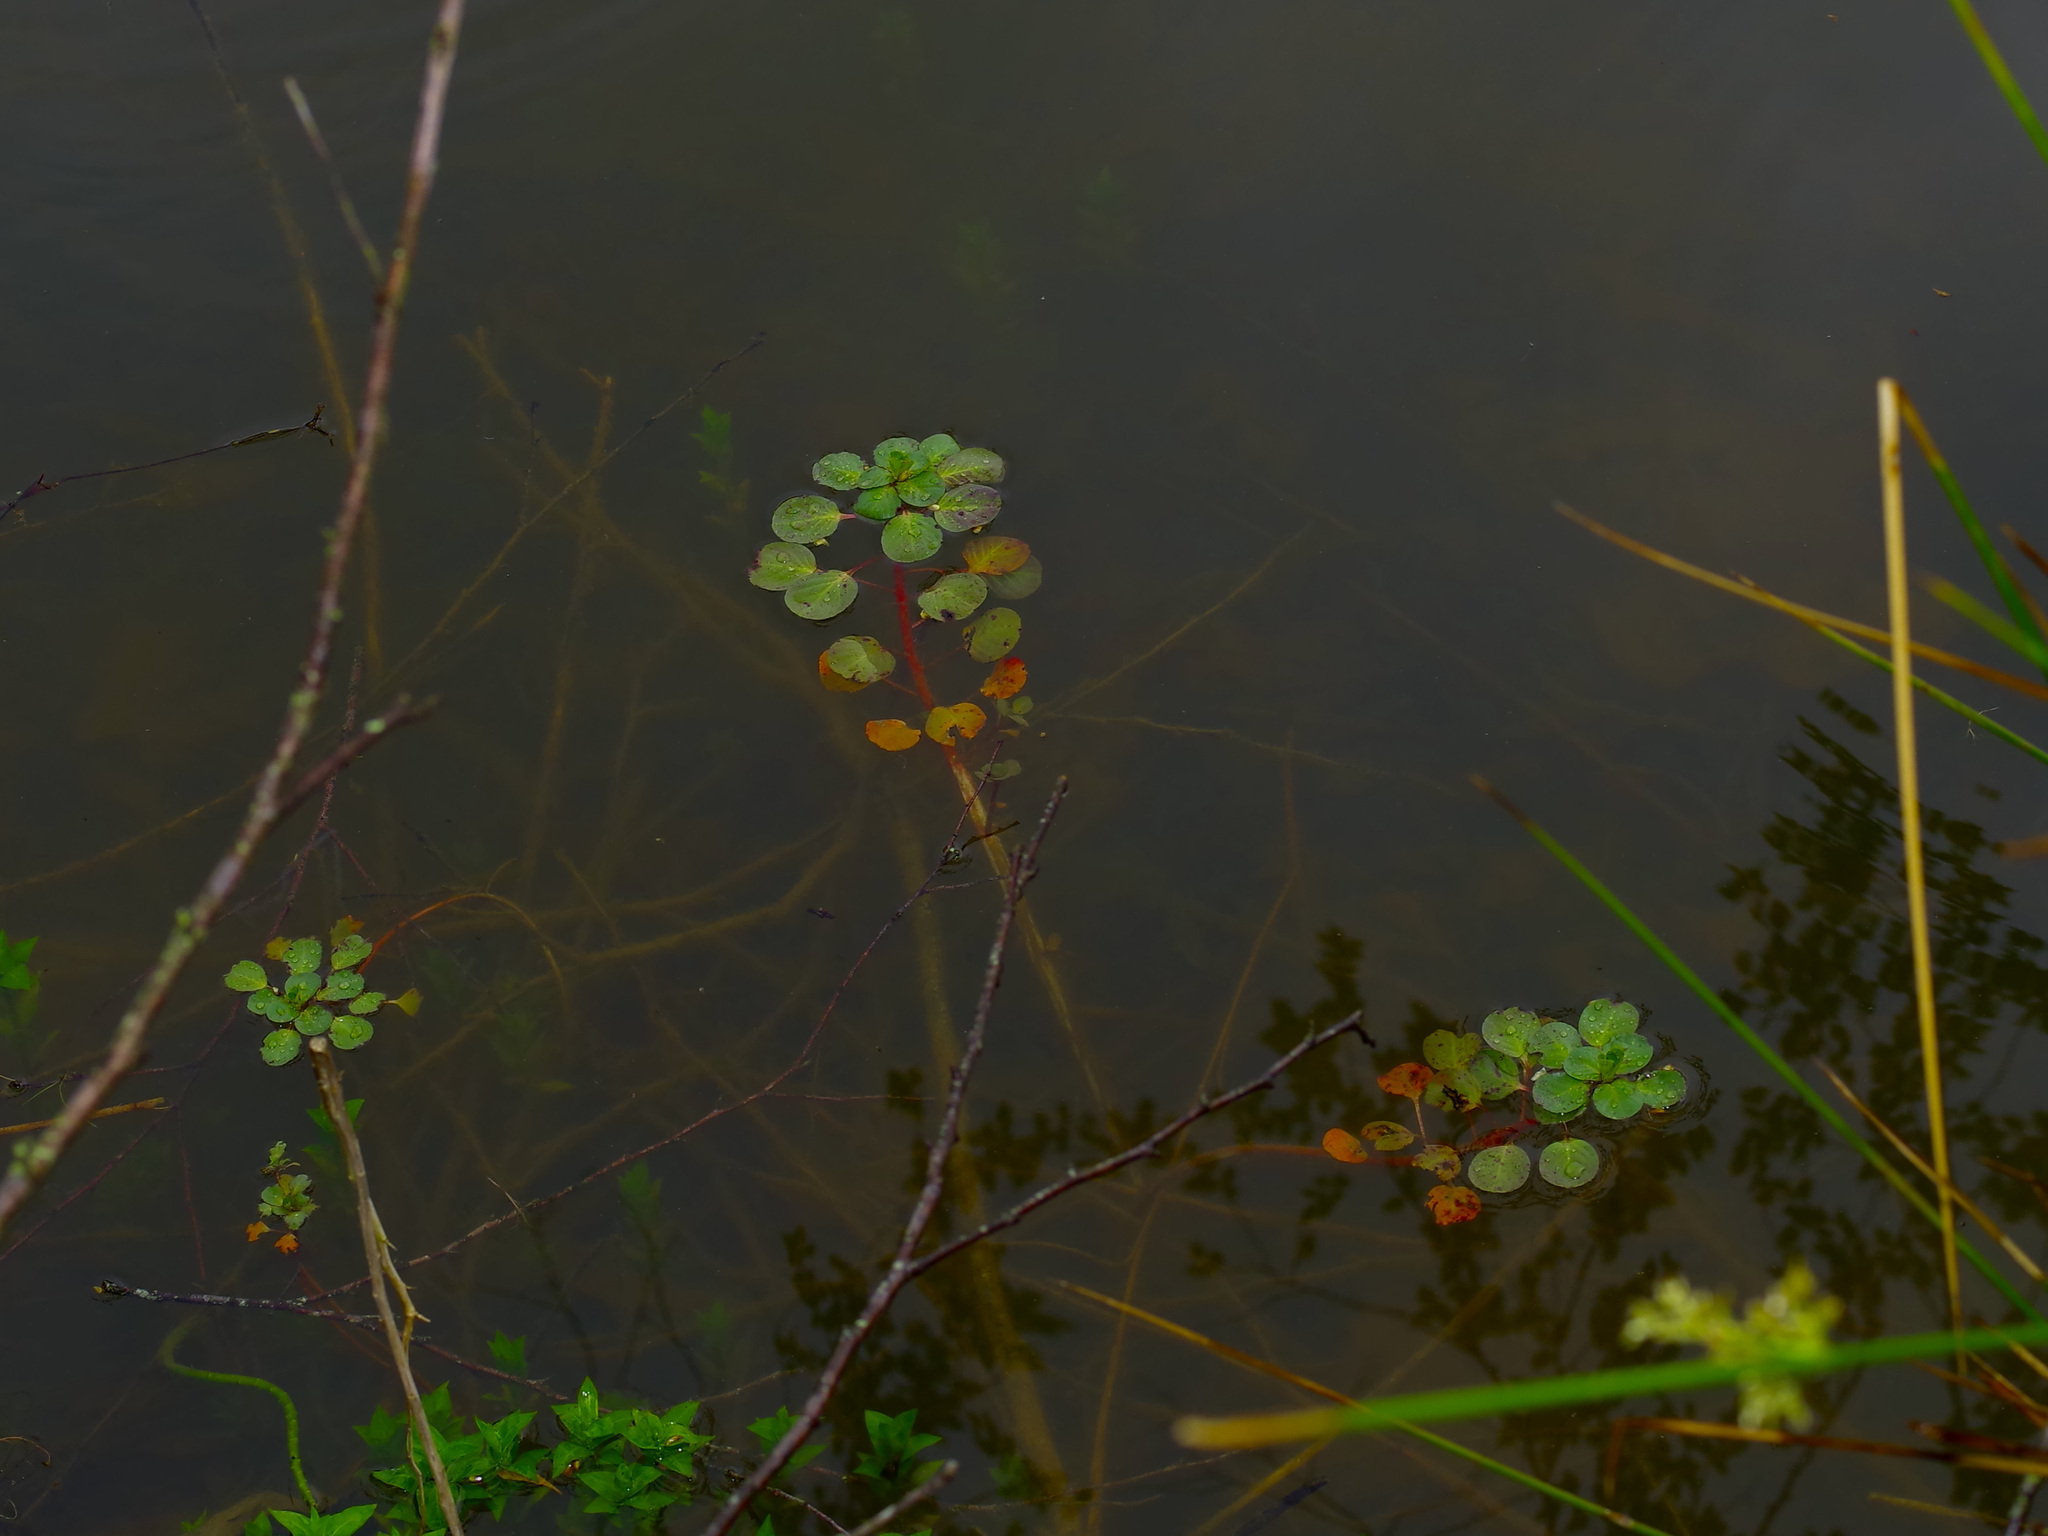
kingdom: Plantae
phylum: Tracheophyta
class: Magnoliopsida
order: Myrtales
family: Onagraceae
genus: Ludwigia
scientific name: Ludwigia peploides
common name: Floating primrose-willow
